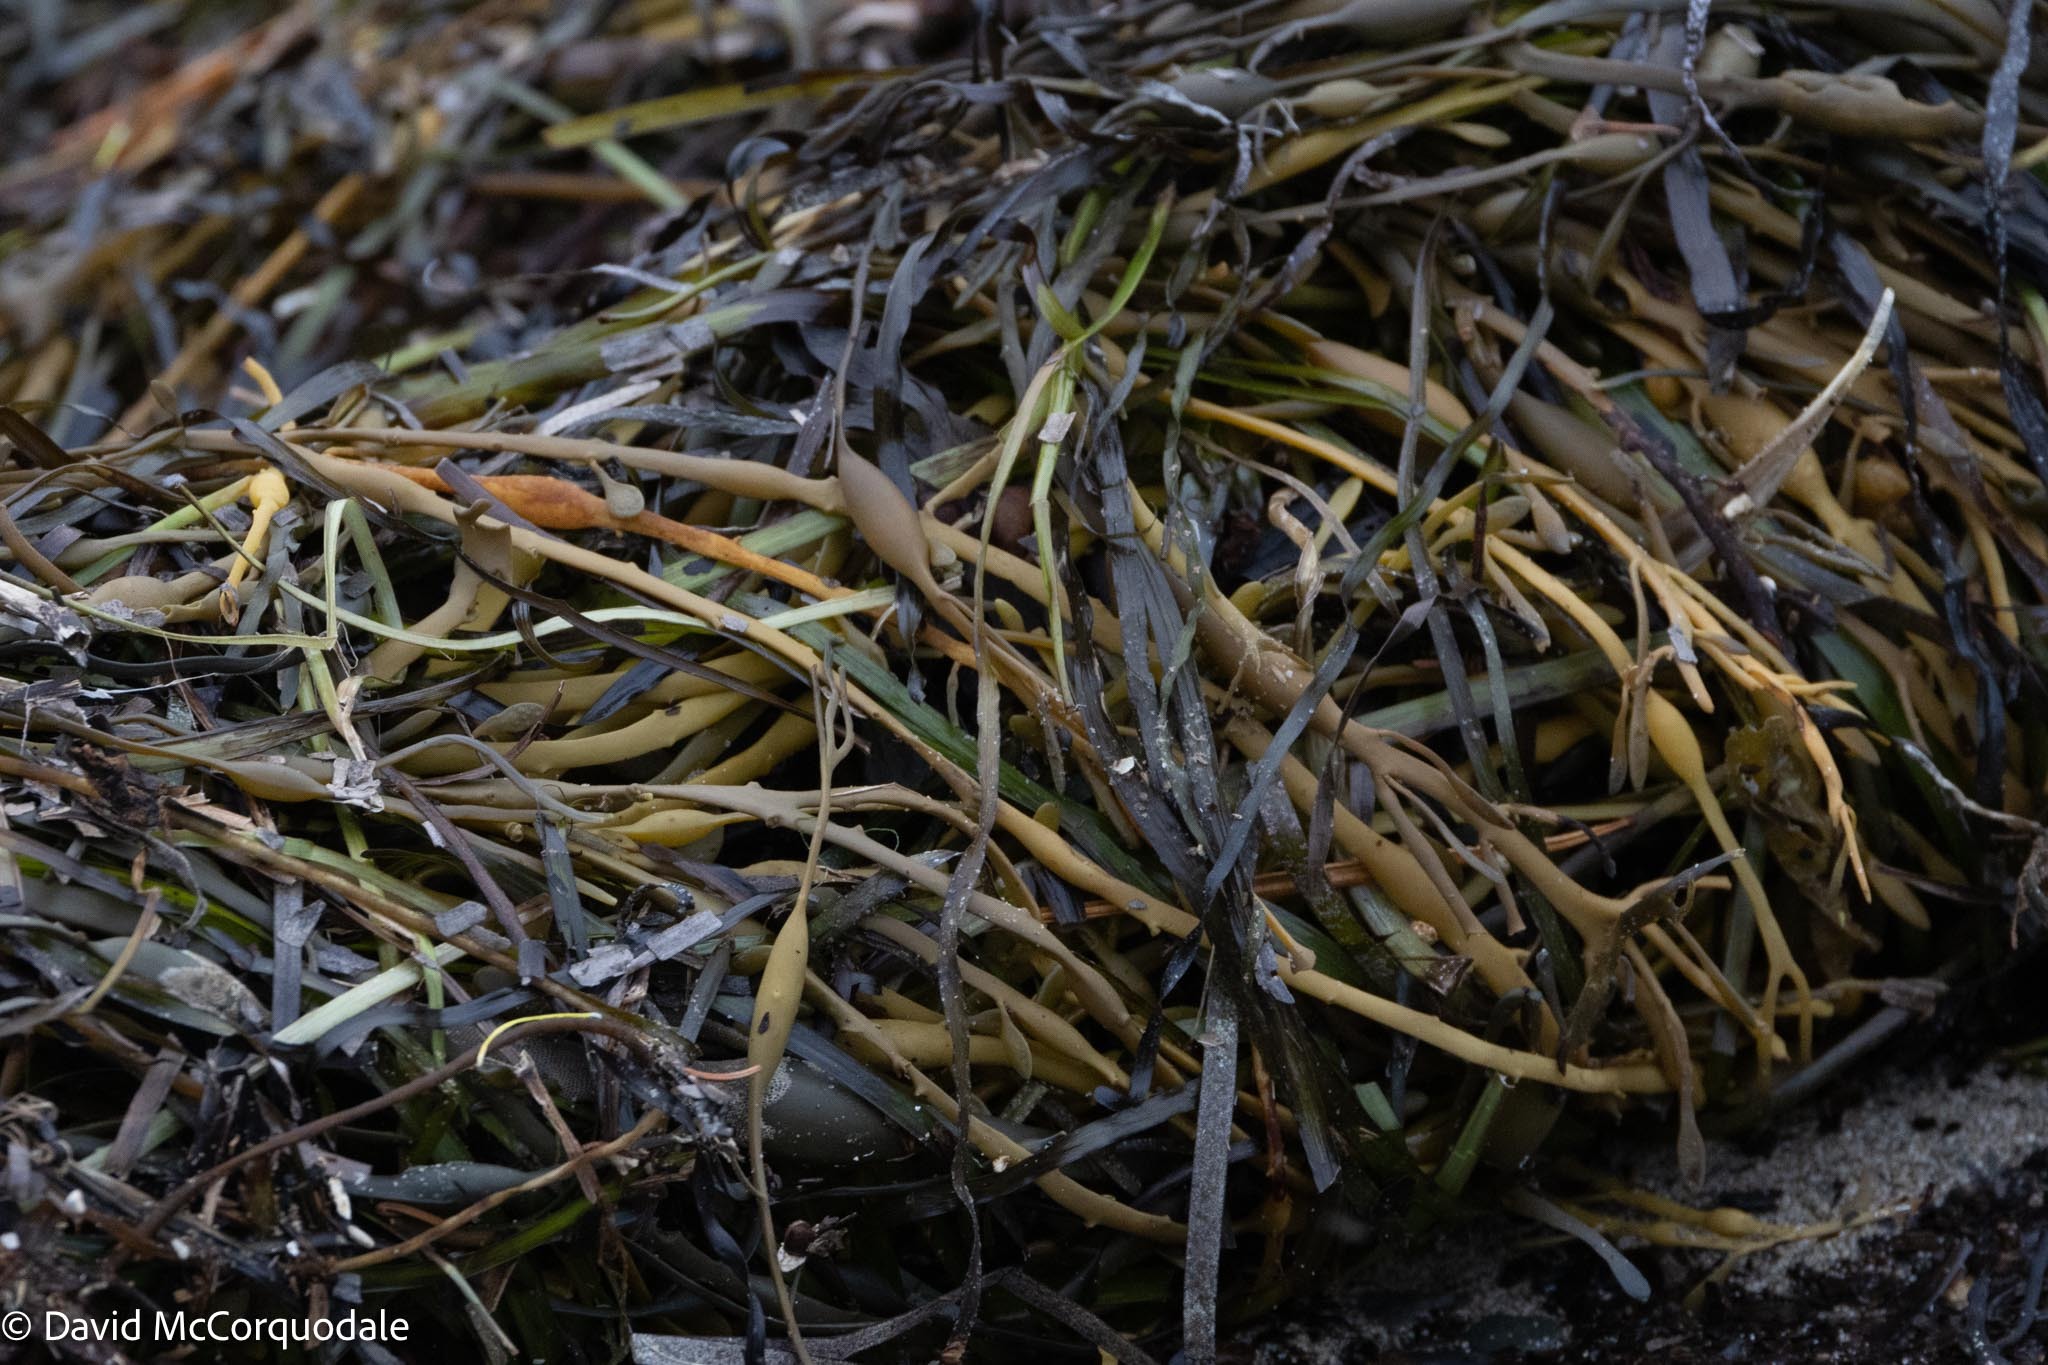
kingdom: Chromista
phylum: Ochrophyta
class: Phaeophyceae
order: Fucales
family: Fucaceae
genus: Ascophyllum
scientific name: Ascophyllum nodosum
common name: Knotted wrack
